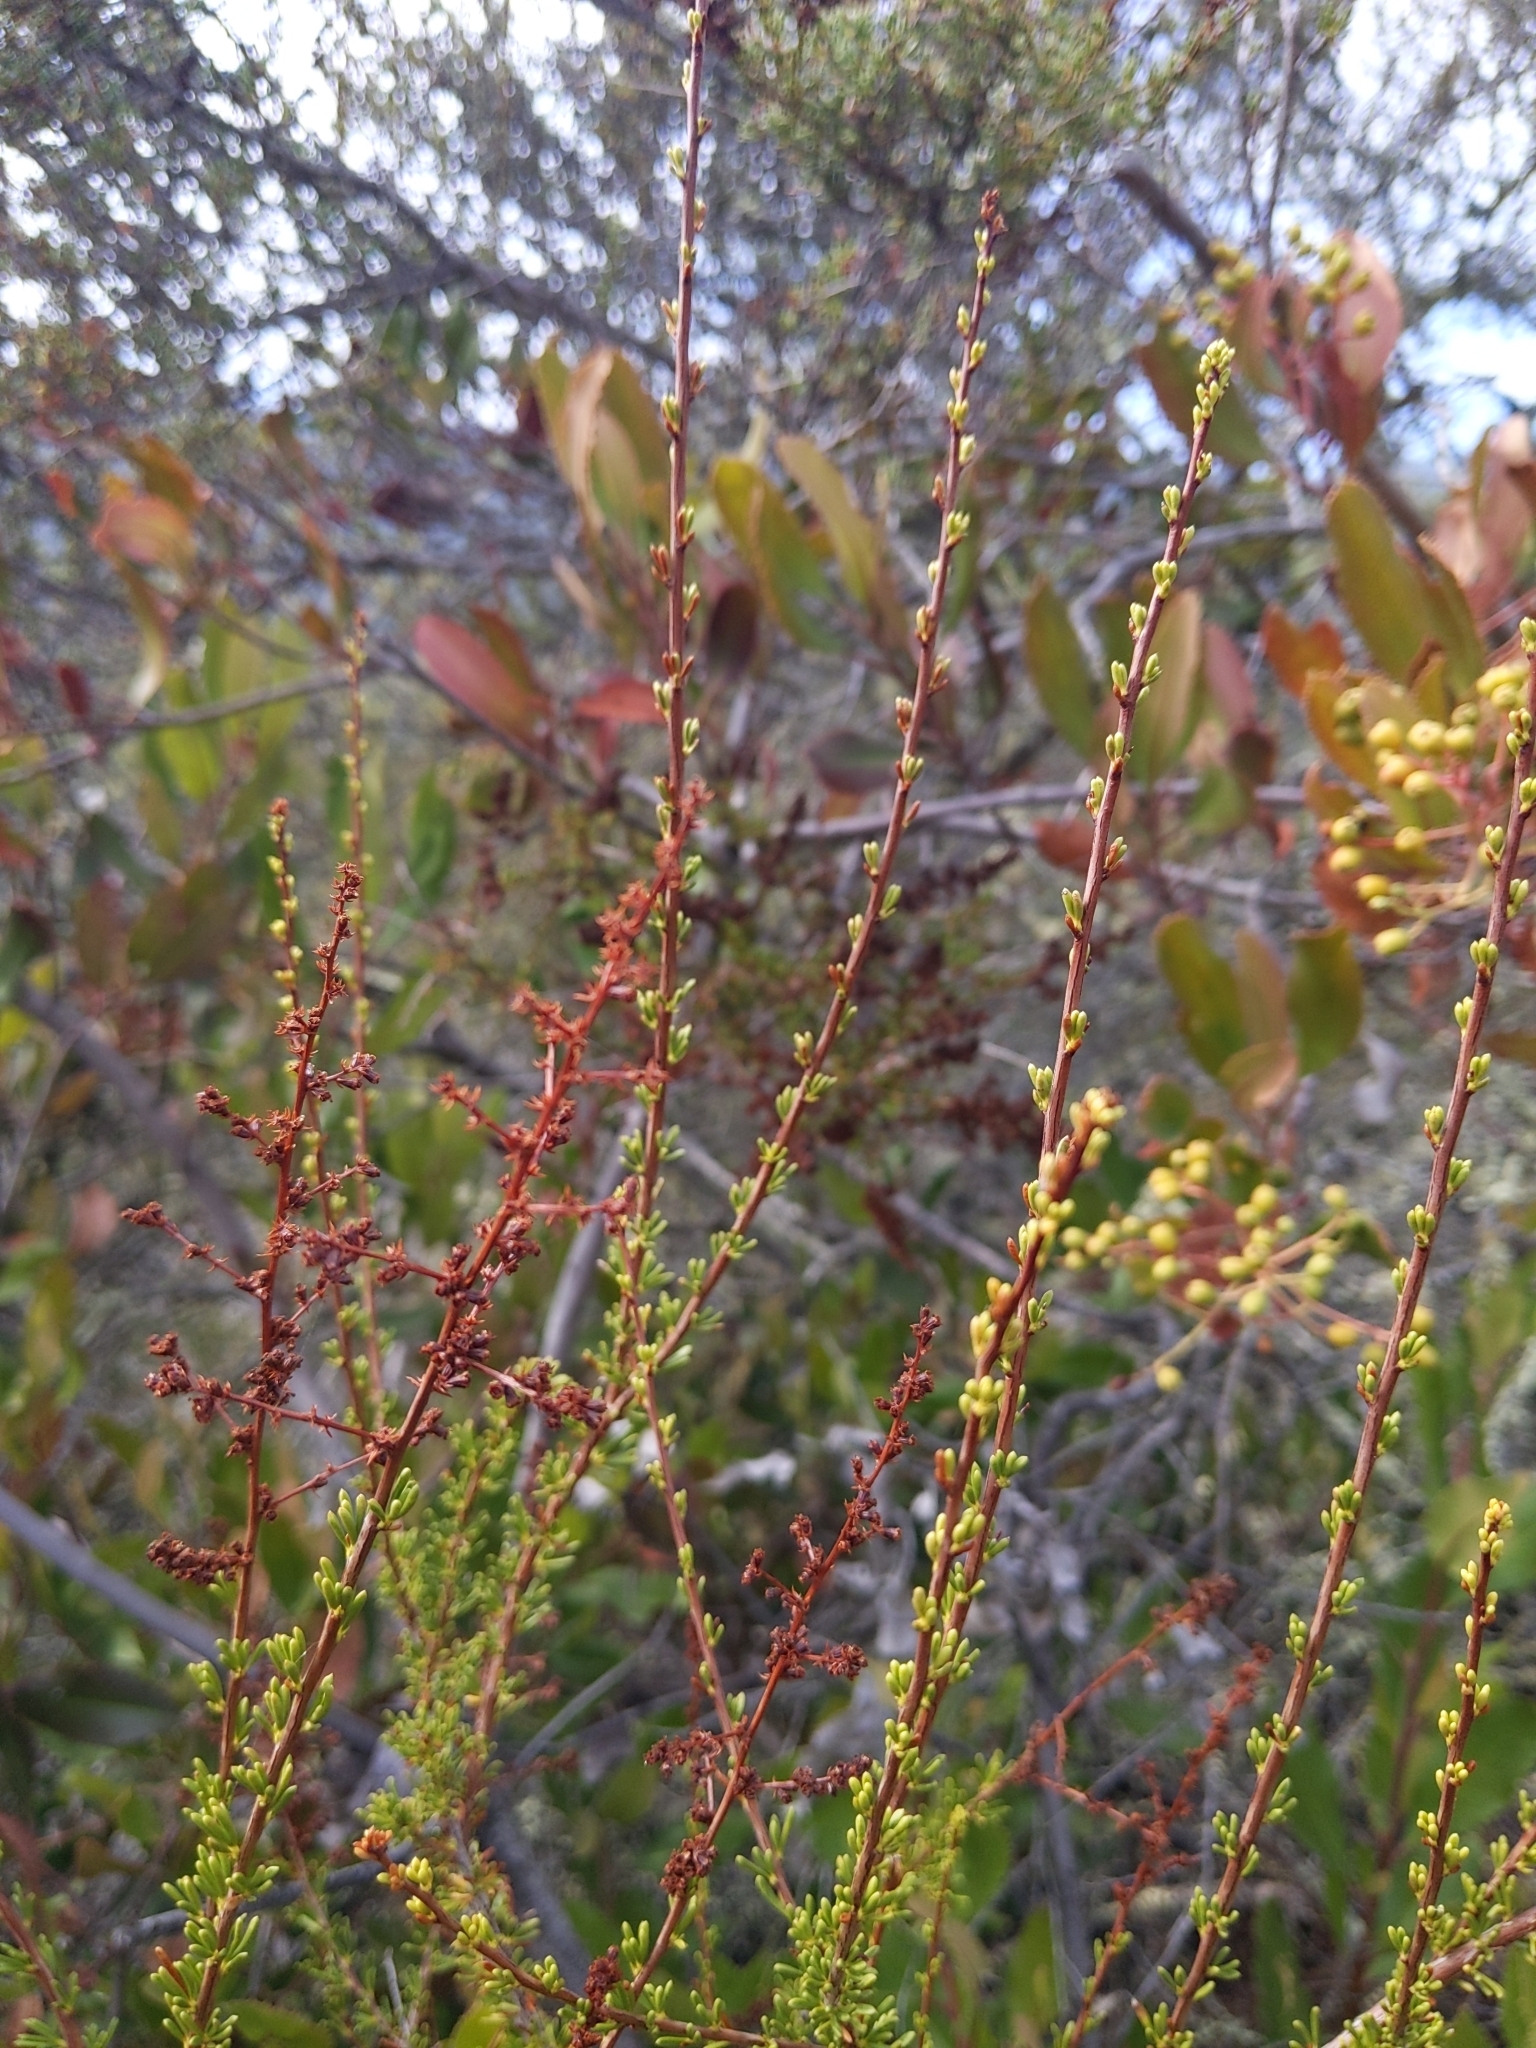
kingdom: Plantae
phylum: Tracheophyta
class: Magnoliopsida
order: Rosales
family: Rosaceae
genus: Adenostoma
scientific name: Adenostoma fasciculatum
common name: Chamise
